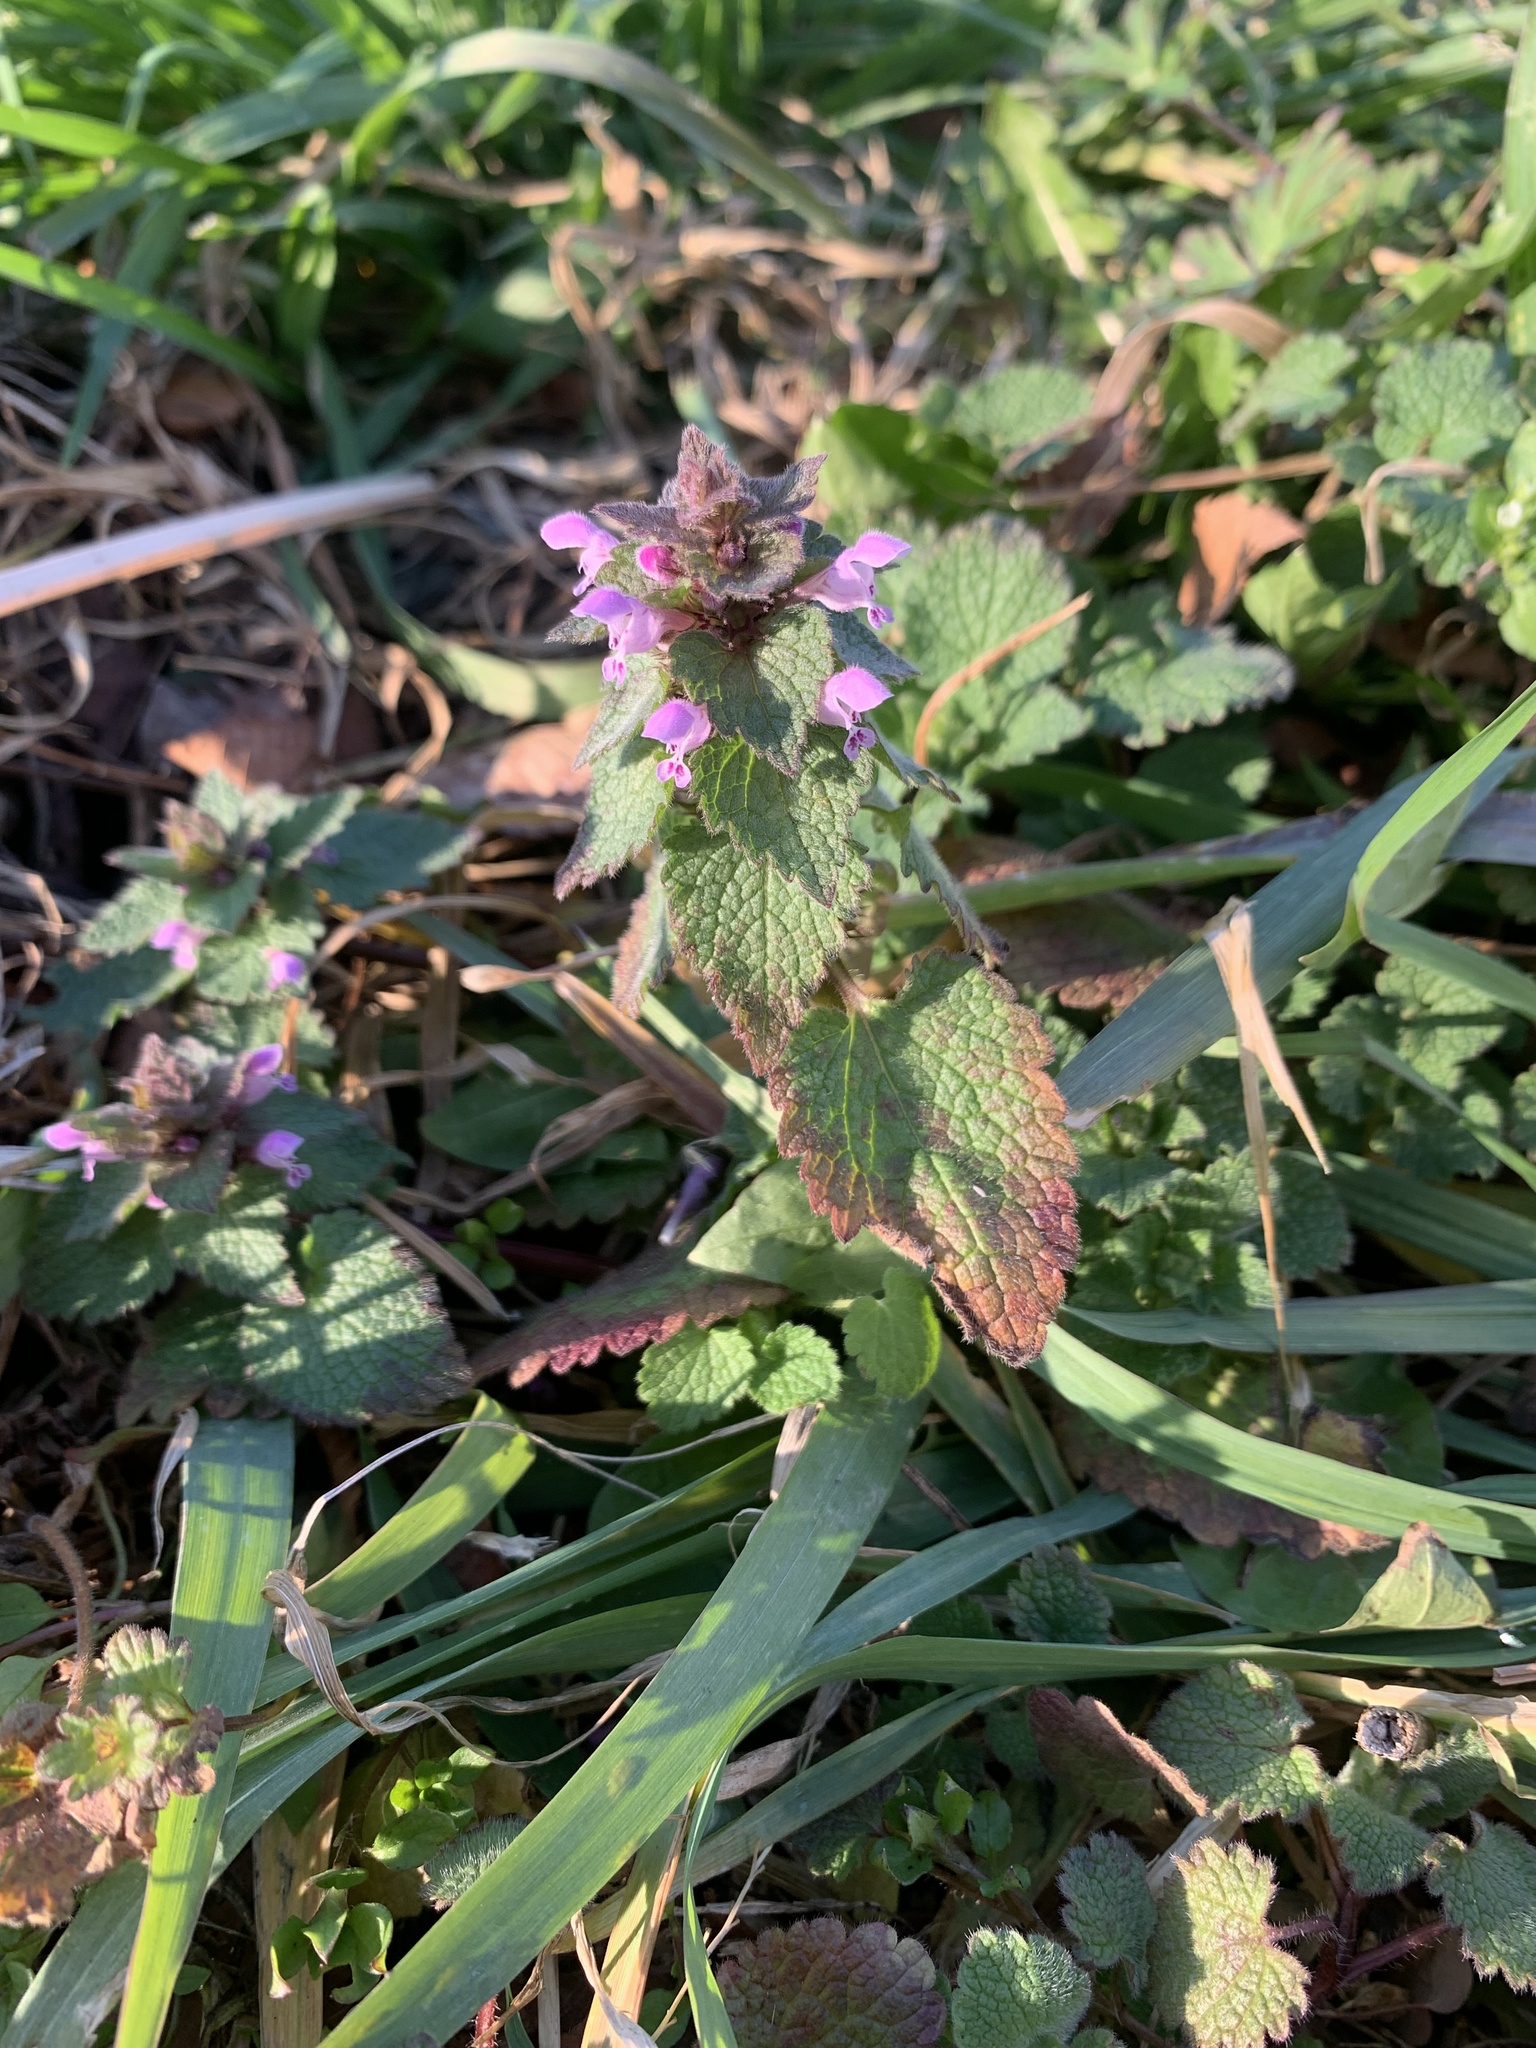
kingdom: Plantae
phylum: Tracheophyta
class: Magnoliopsida
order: Lamiales
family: Lamiaceae
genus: Lamium
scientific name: Lamium purpureum
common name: Red dead-nettle
